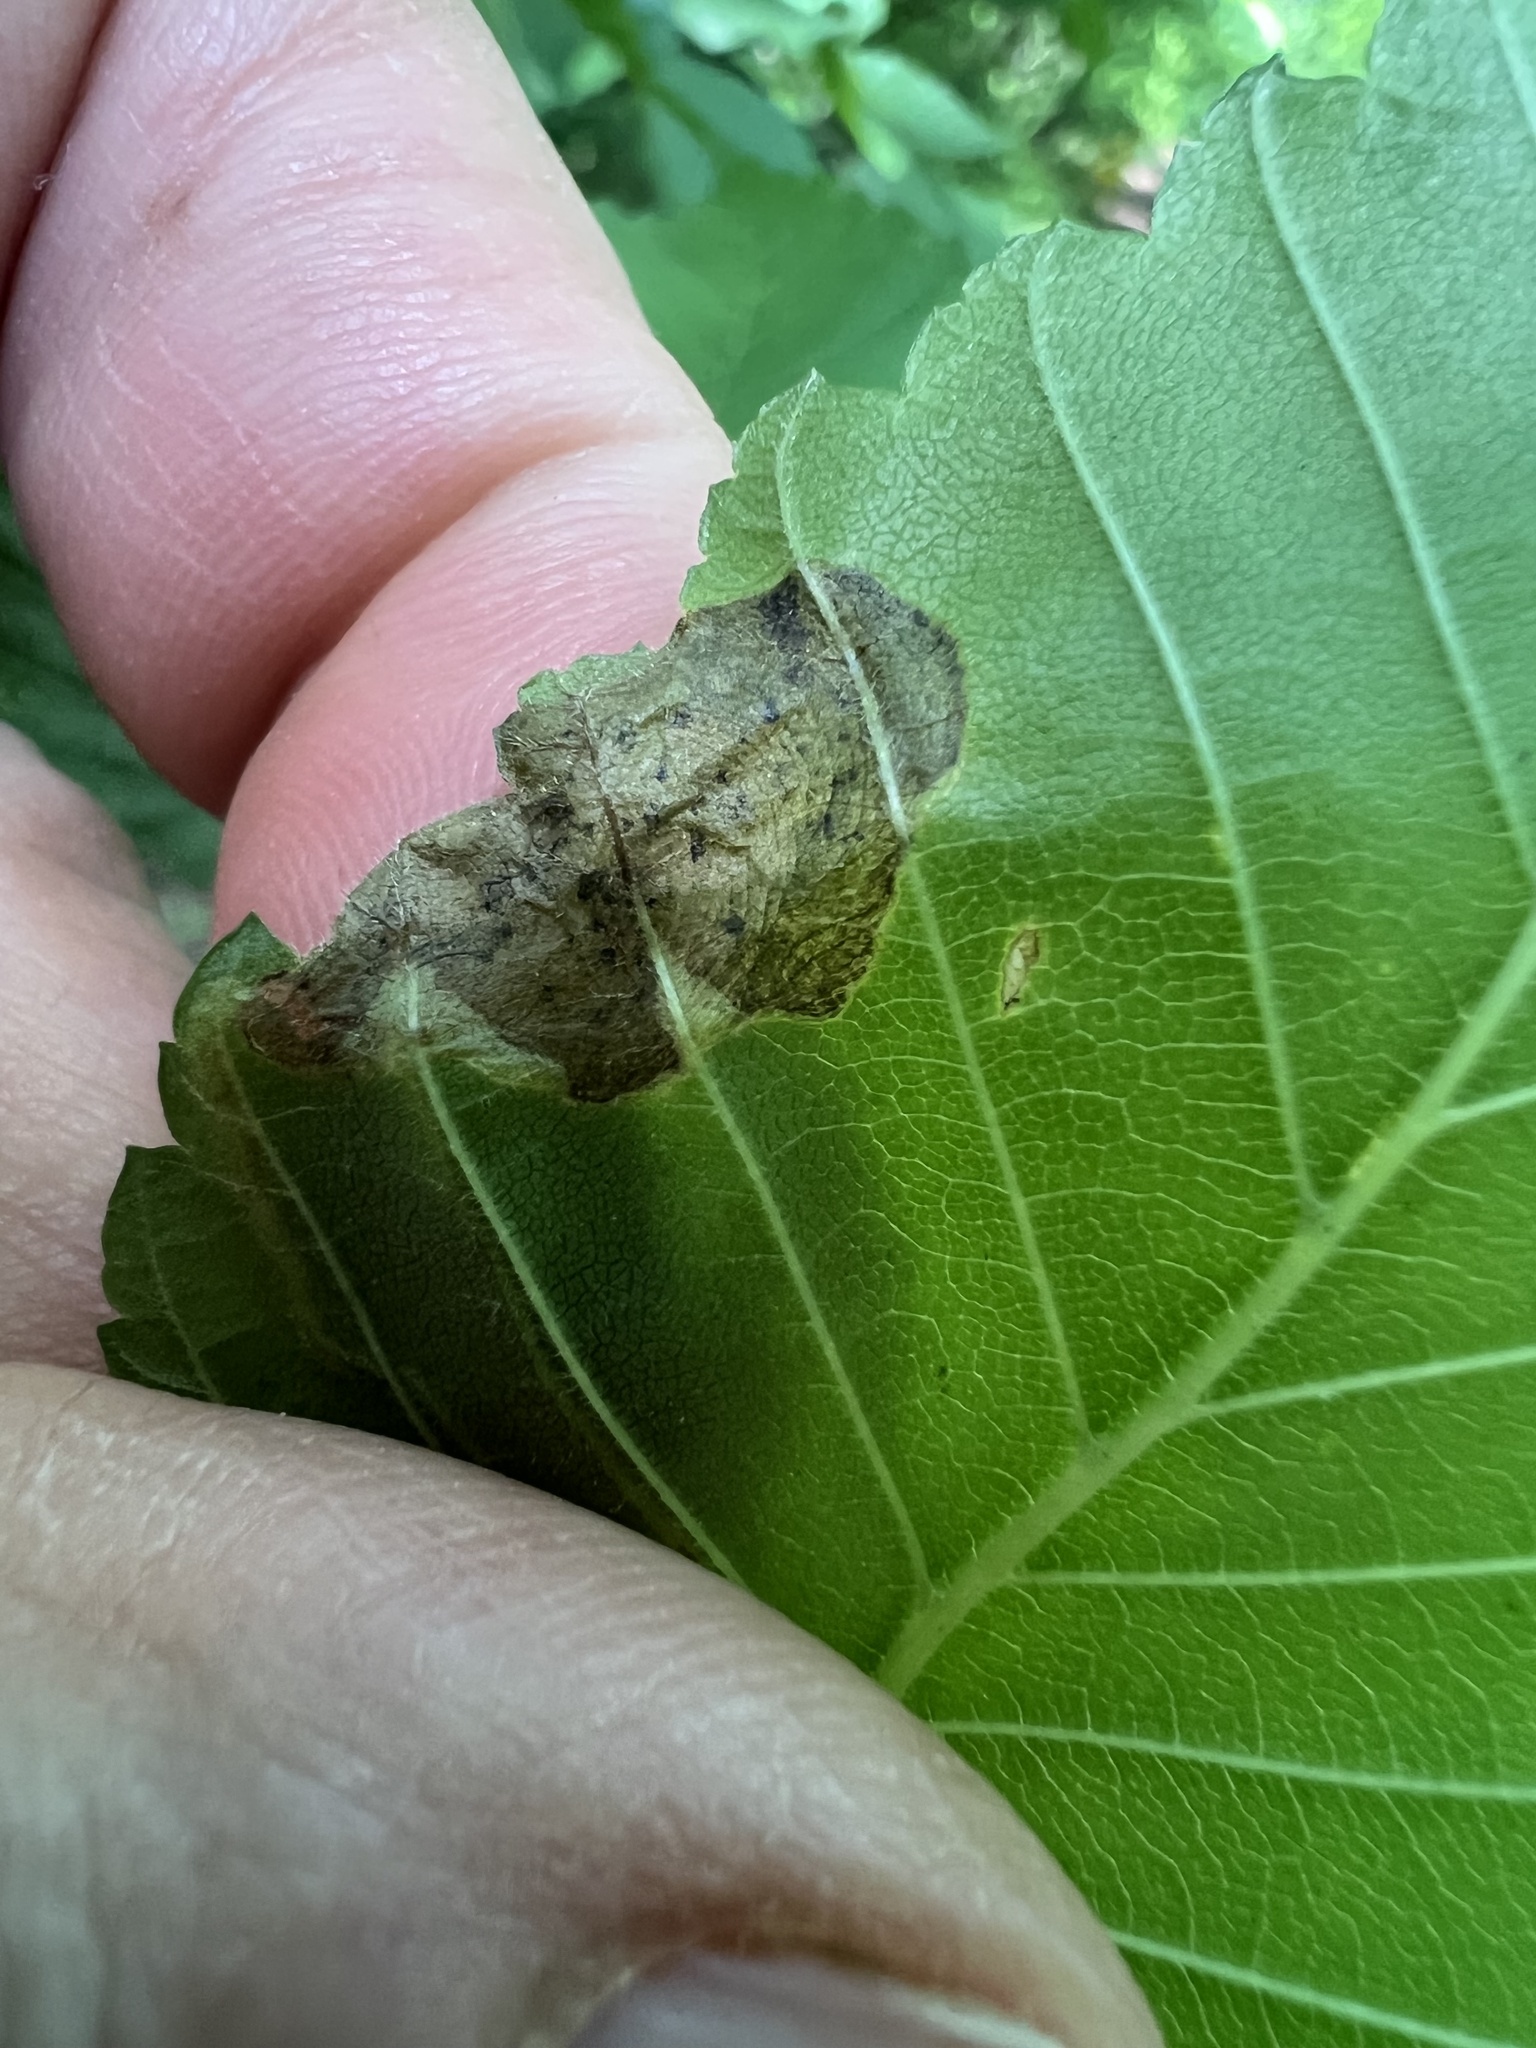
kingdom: Animalia
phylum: Arthropoda
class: Insecta
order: Diptera
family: Agromyzidae
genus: Agromyza
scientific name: Agromyza aristata
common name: Elm agromyzid leafminer
